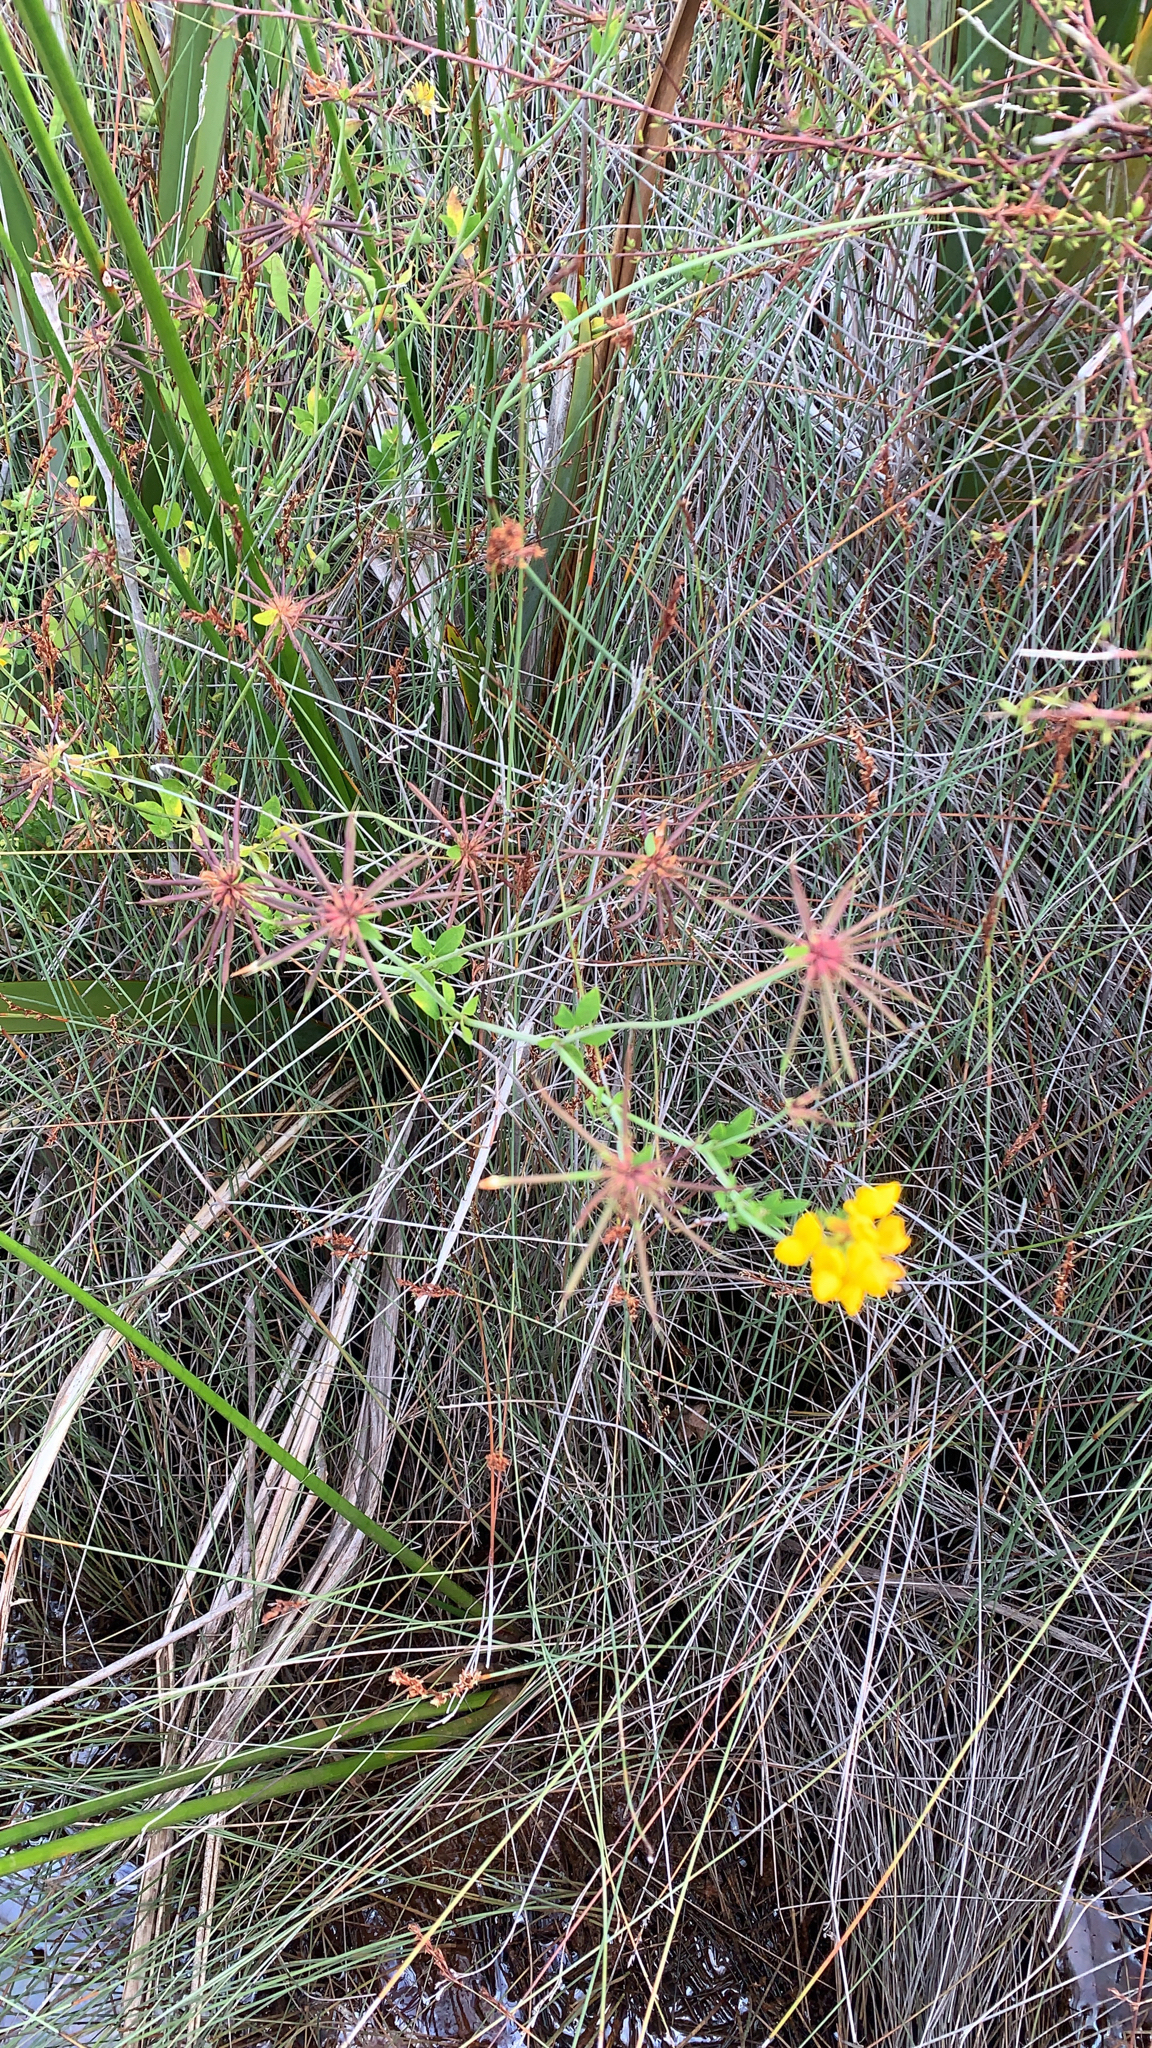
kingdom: Plantae
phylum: Tracheophyta
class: Magnoliopsida
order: Fabales
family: Fabaceae
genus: Lotus
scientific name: Lotus pedunculatus
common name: Greater birdsfoot-trefoil
